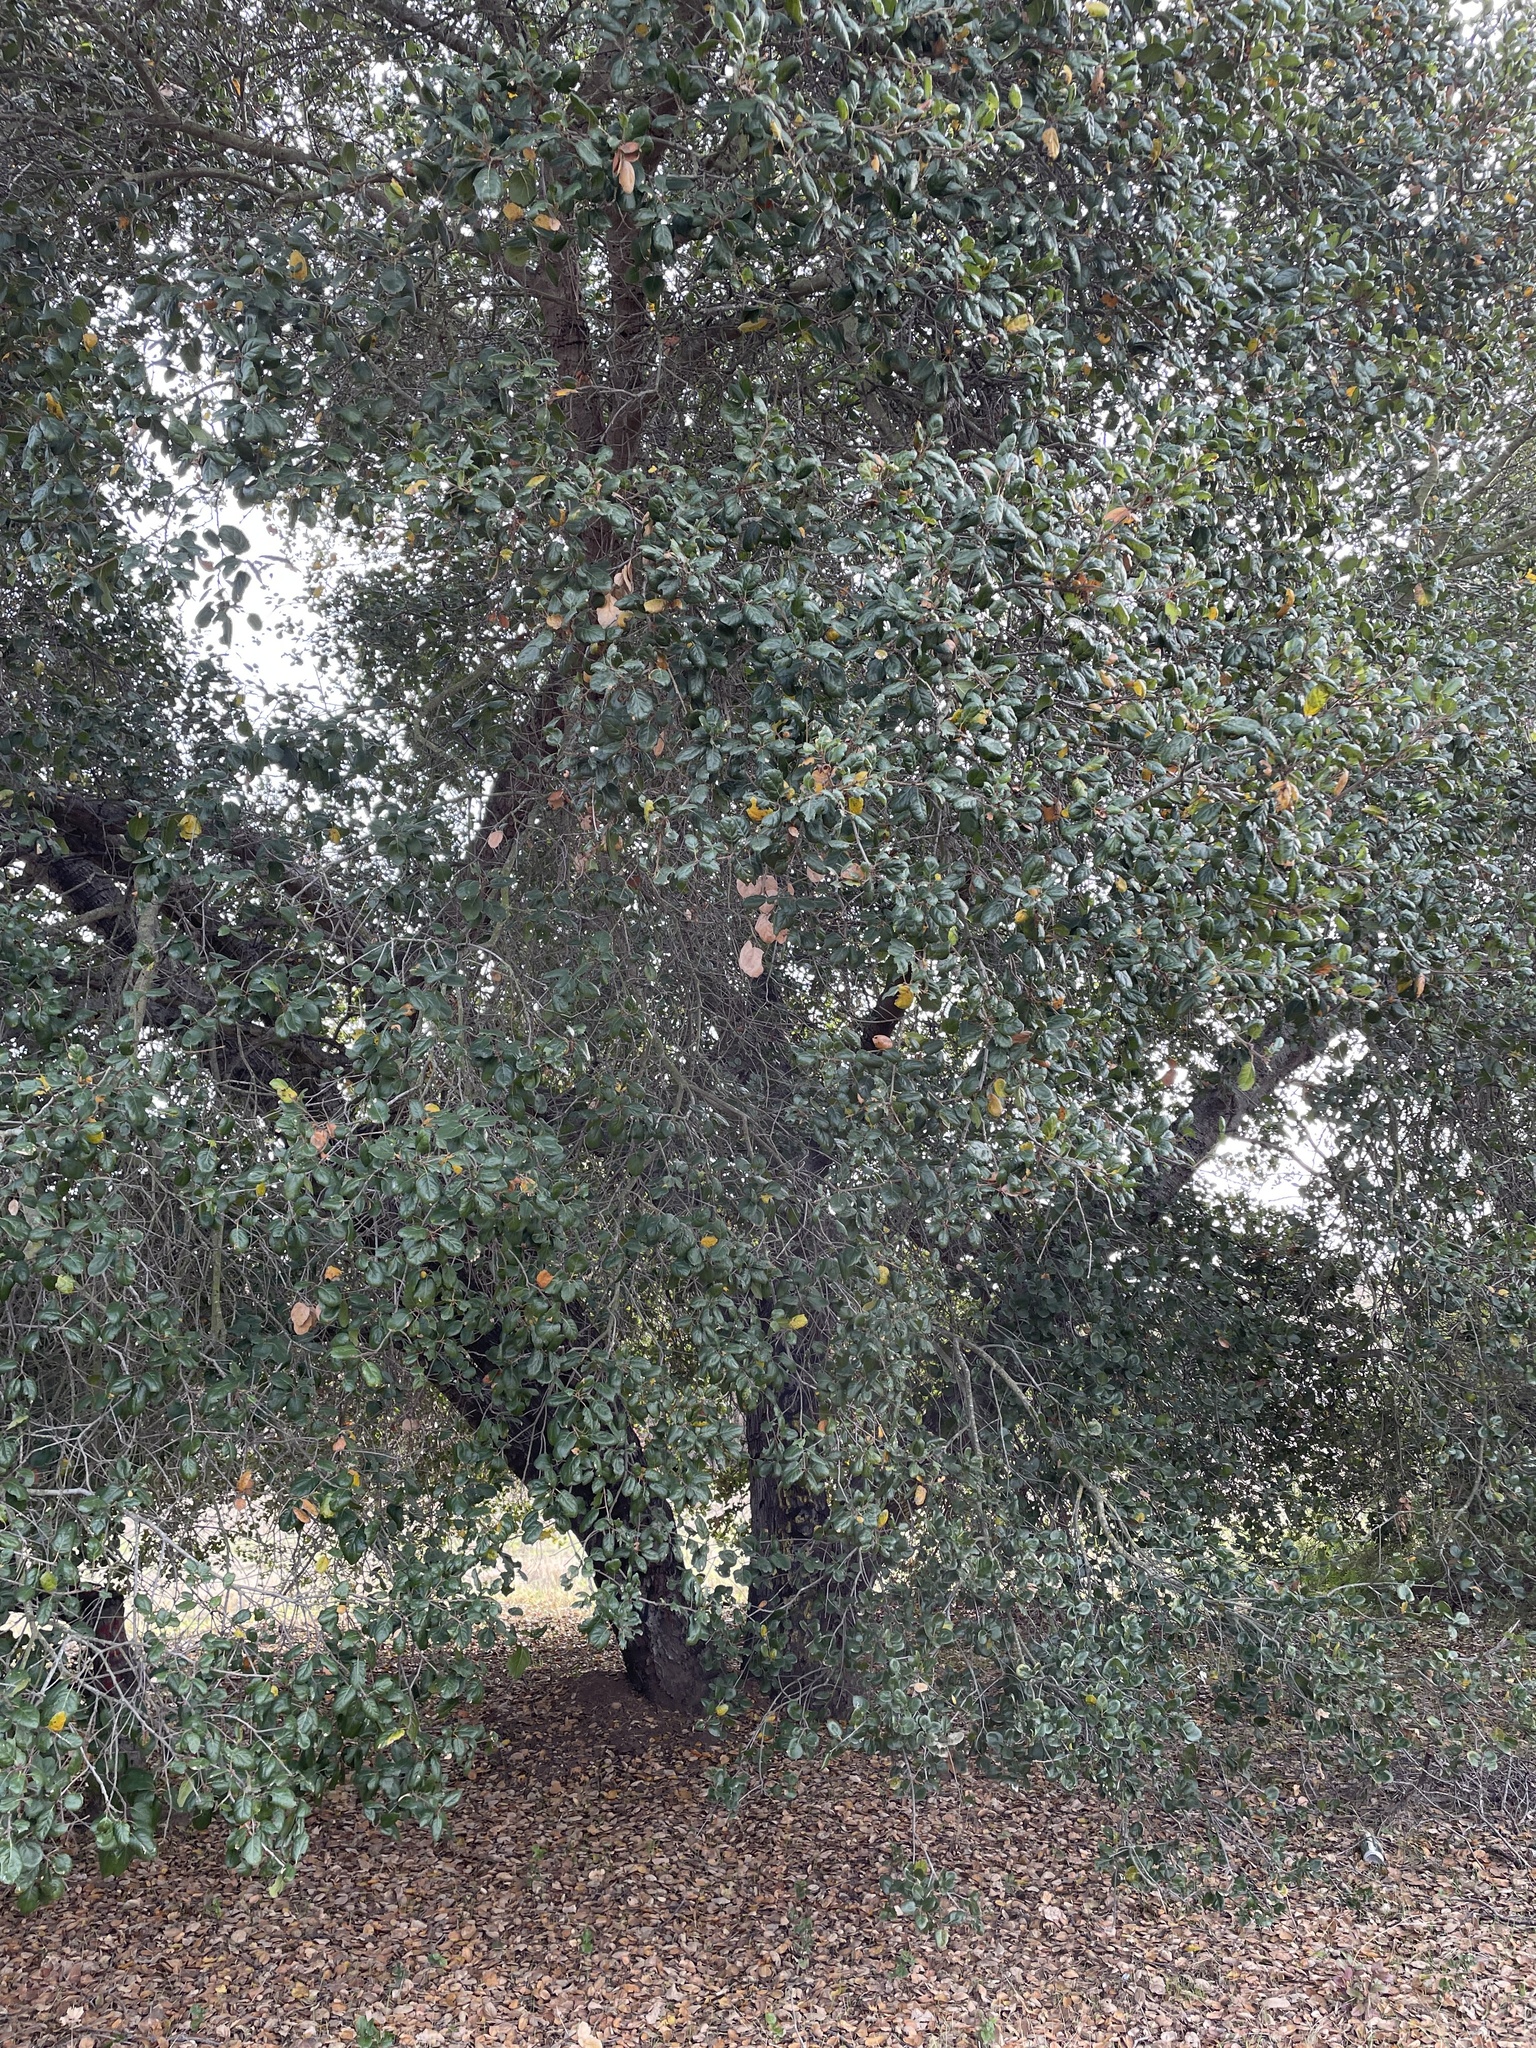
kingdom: Plantae
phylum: Tracheophyta
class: Magnoliopsida
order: Fagales
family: Fagaceae
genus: Quercus
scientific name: Quercus agrifolia
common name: California live oak
